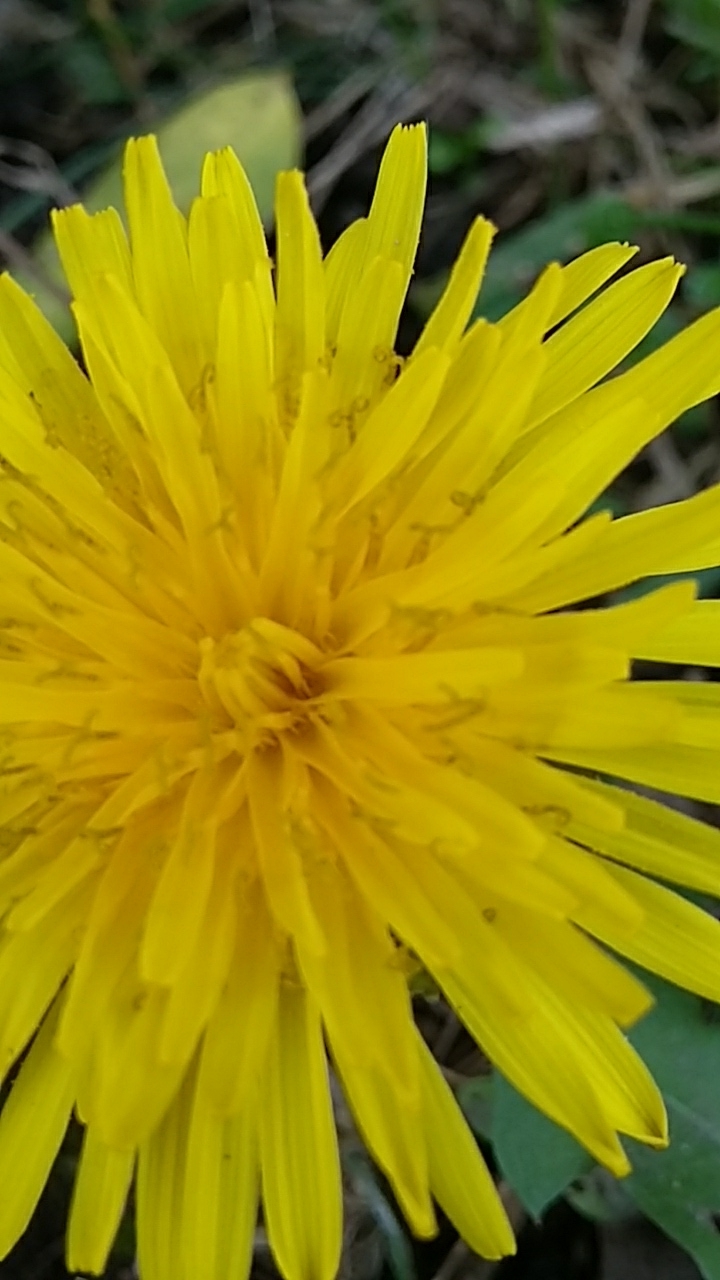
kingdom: Plantae
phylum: Tracheophyta
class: Magnoliopsida
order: Asterales
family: Asteraceae
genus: Taraxacum
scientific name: Taraxacum officinale
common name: Common dandelion
